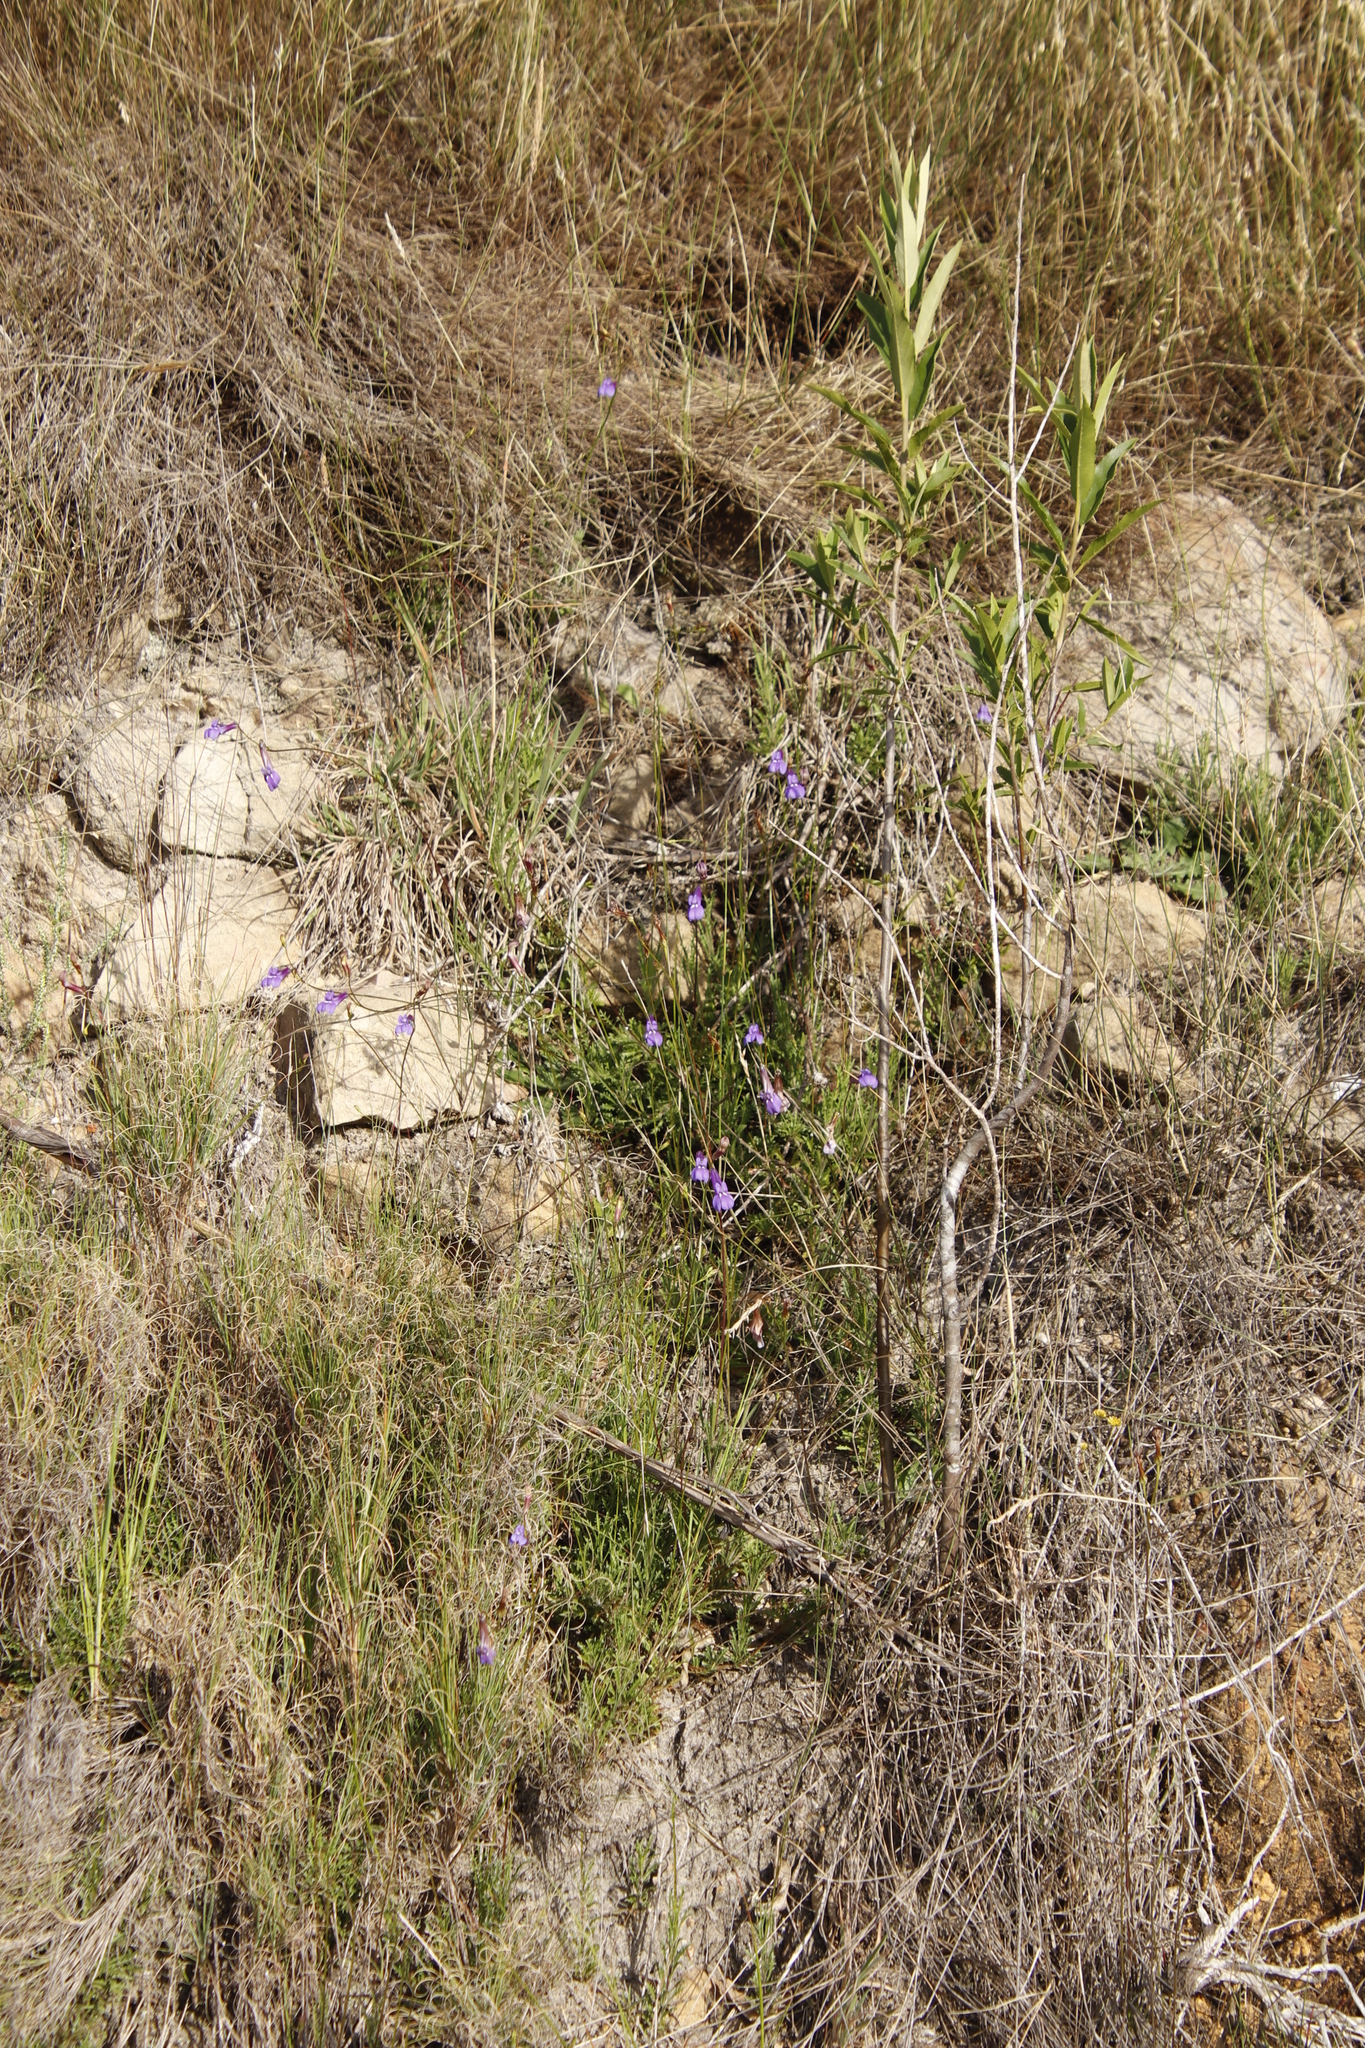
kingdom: Plantae
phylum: Tracheophyta
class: Magnoliopsida
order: Asterales
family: Campanulaceae
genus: Lobelia
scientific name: Lobelia coronopifolia
